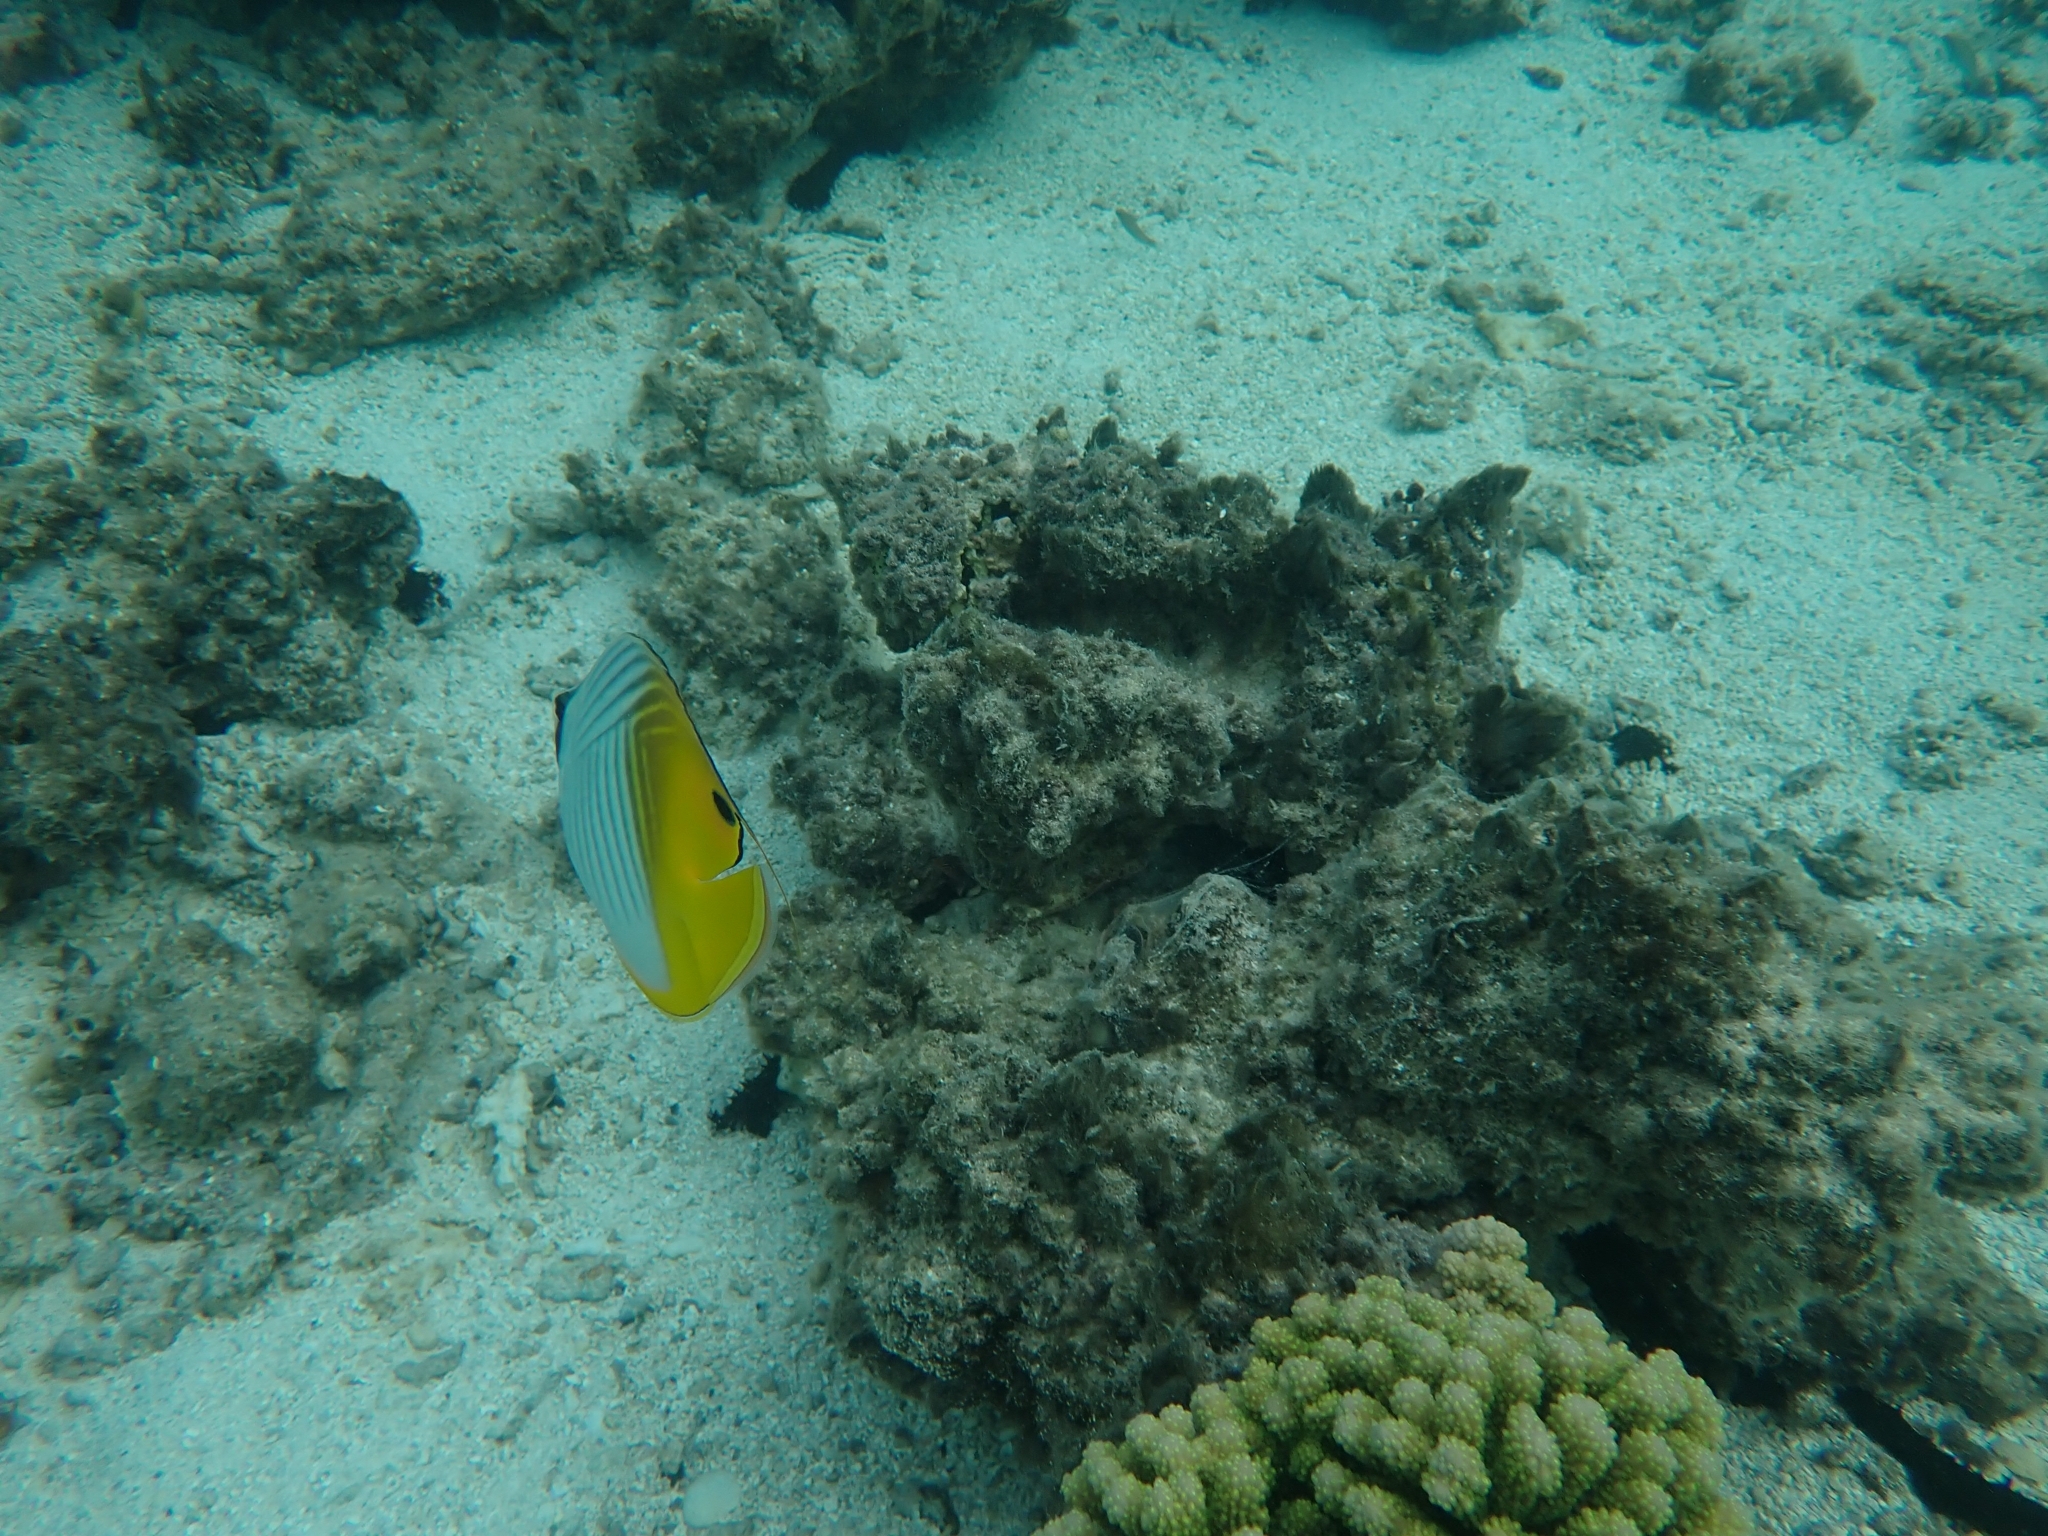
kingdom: Animalia
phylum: Chordata
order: Perciformes
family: Chaetodontidae
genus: Chaetodon
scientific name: Chaetodon auriga
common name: Threadfin butterflyfish
